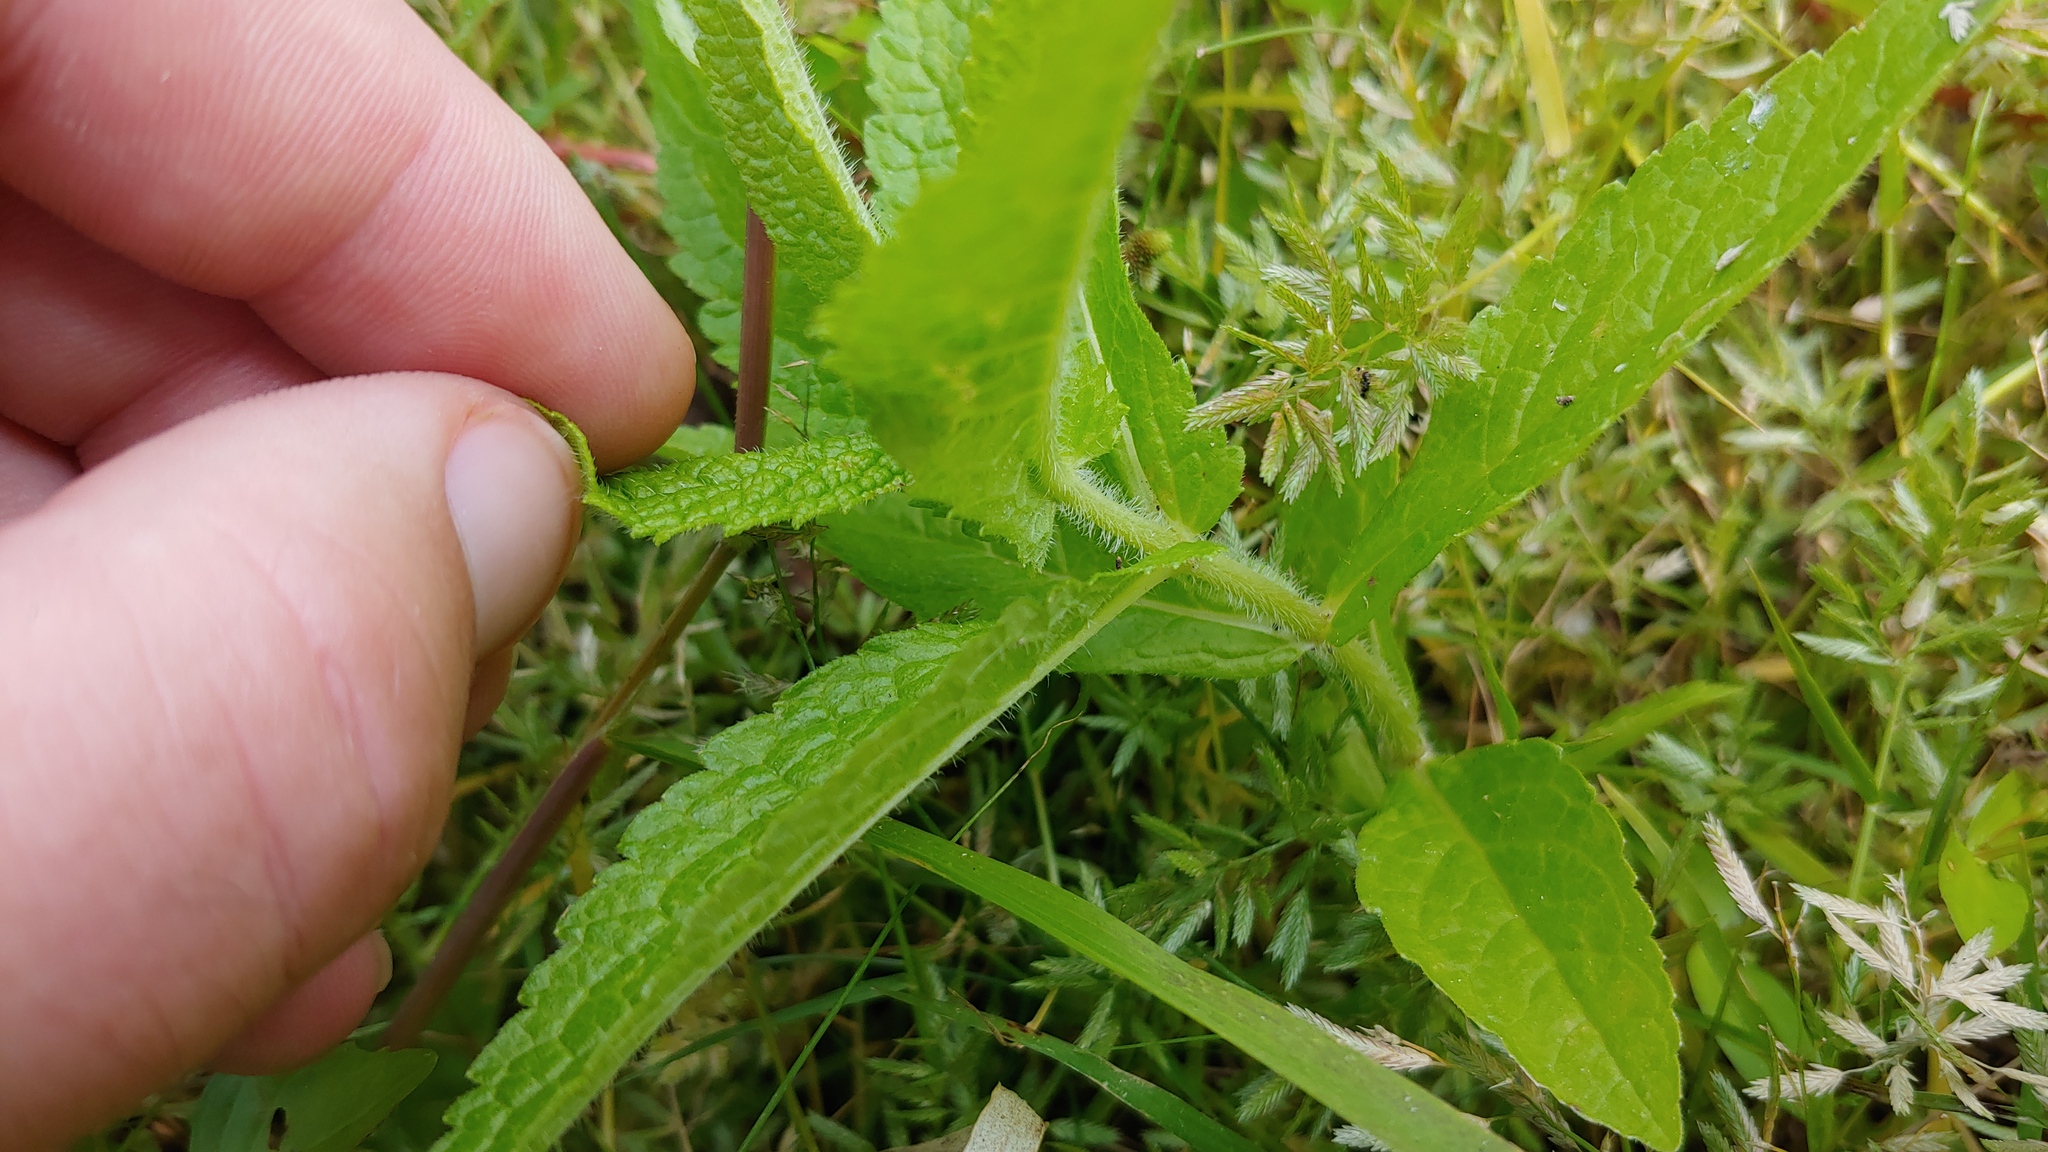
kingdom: Plantae
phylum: Tracheophyta
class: Magnoliopsida
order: Asterales
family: Asteraceae
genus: Eupatorium
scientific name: Eupatorium perfoliatum
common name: Boneset
